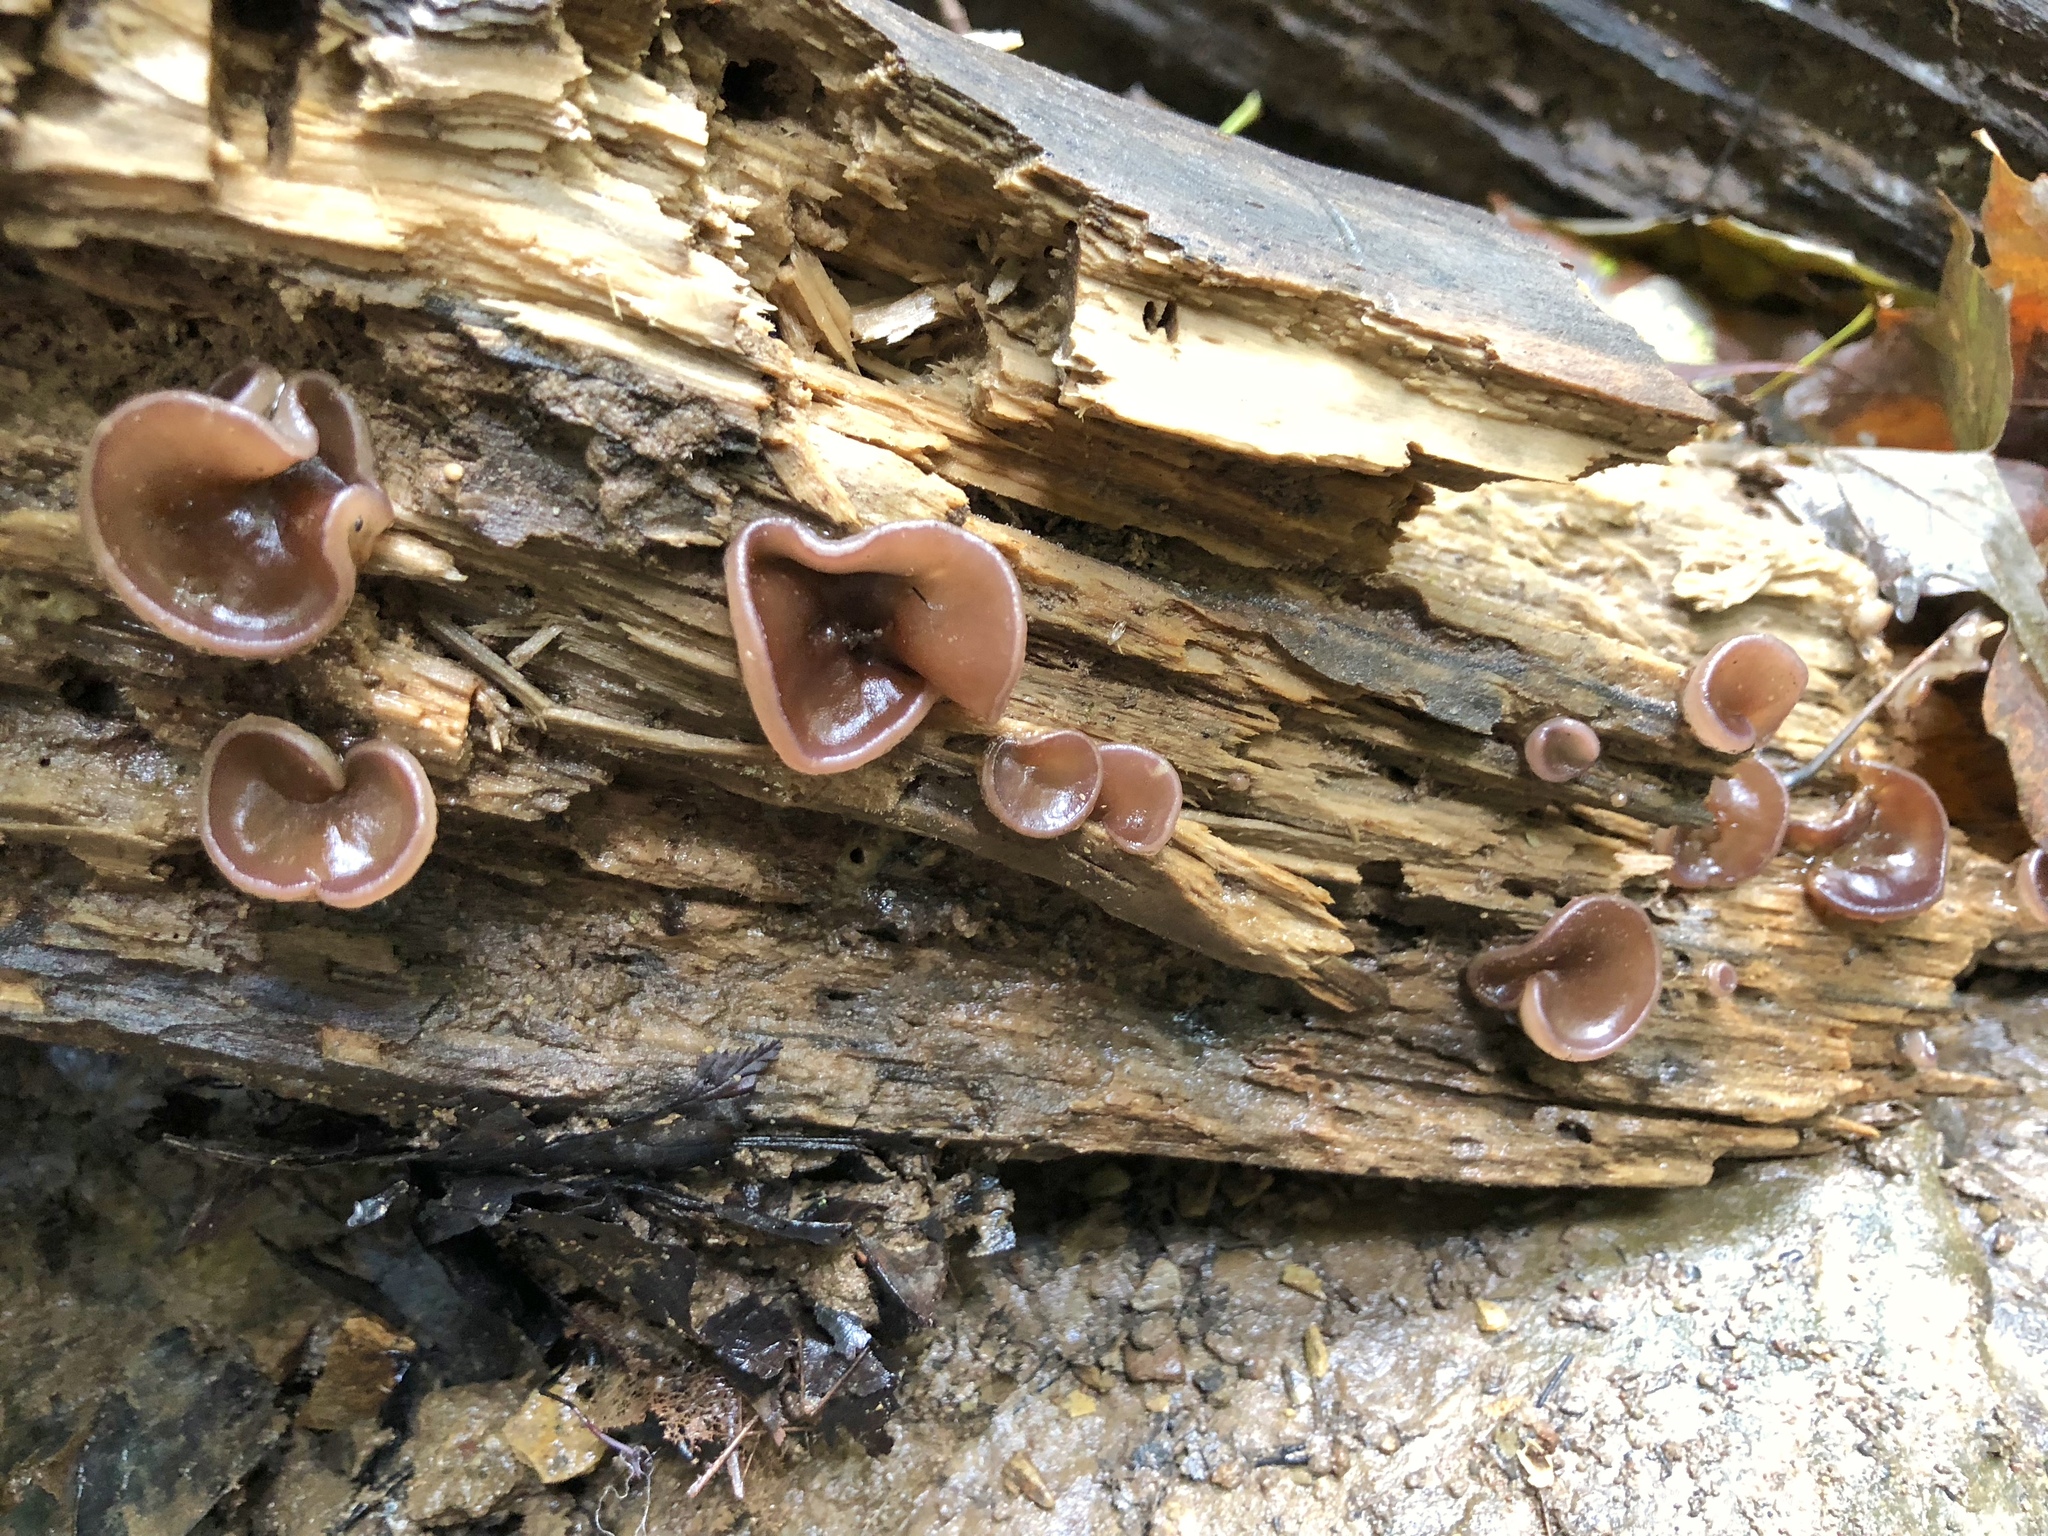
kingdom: Fungi
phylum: Ascomycota
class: Pezizomycetes
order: Pezizales
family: Pezizaceae
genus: Pachyella
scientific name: Pachyella clypeata
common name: Copper penny fungus
